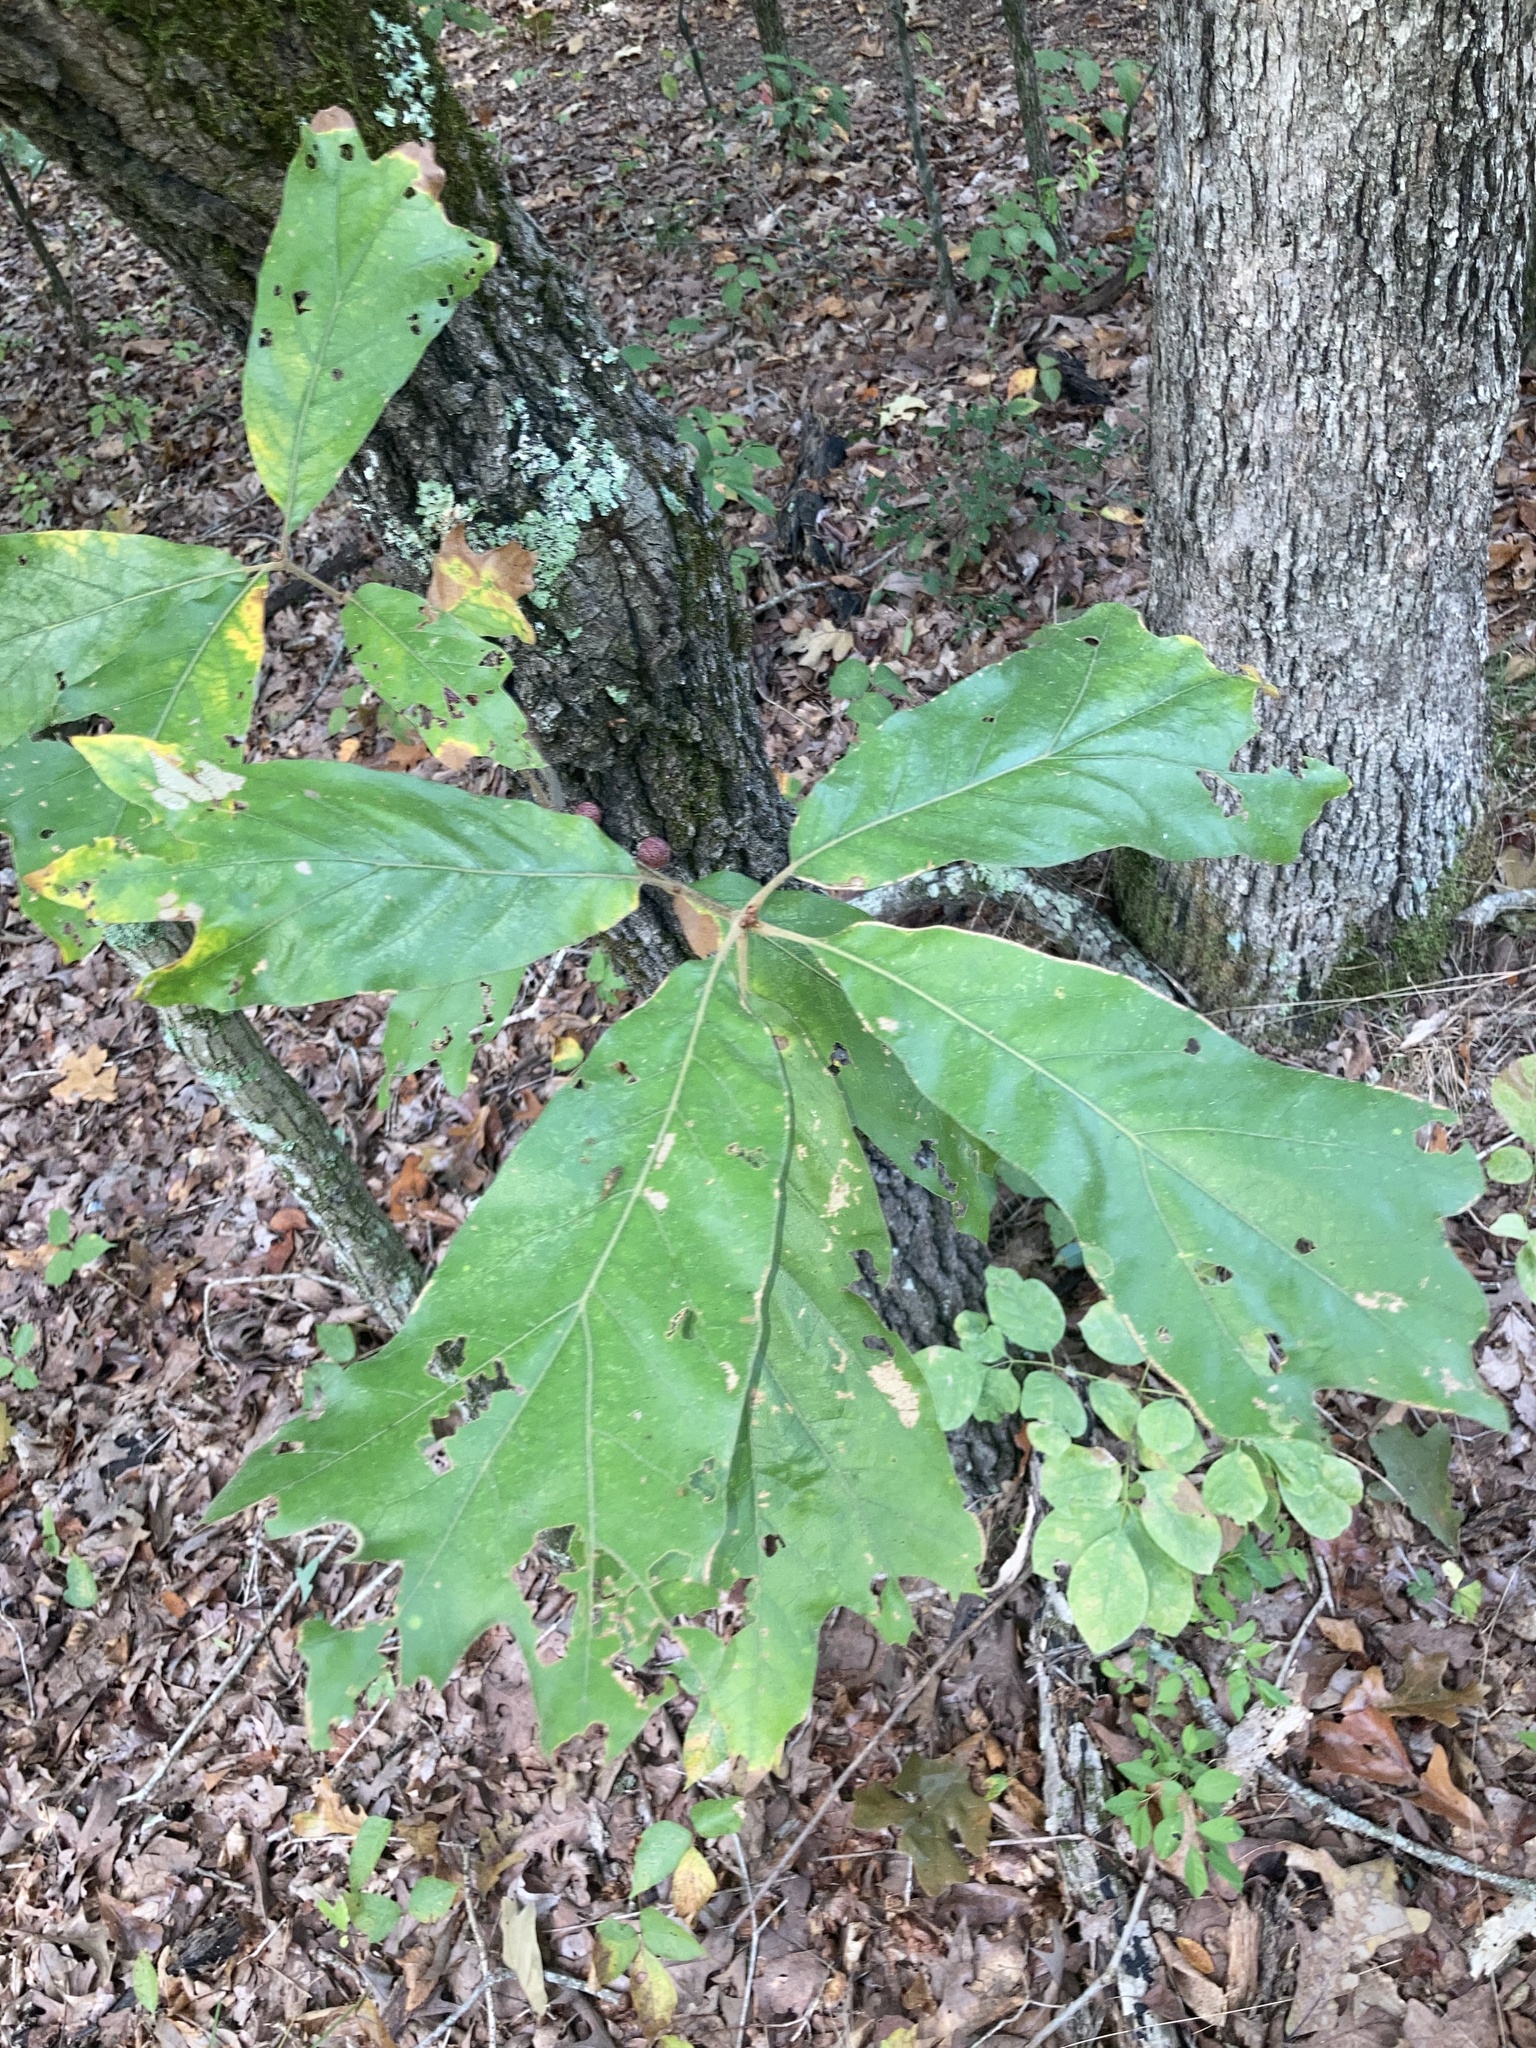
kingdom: Plantae
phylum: Tracheophyta
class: Magnoliopsida
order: Fagales
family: Fagaceae
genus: Quercus
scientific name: Quercus falcata
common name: Southern red oak
